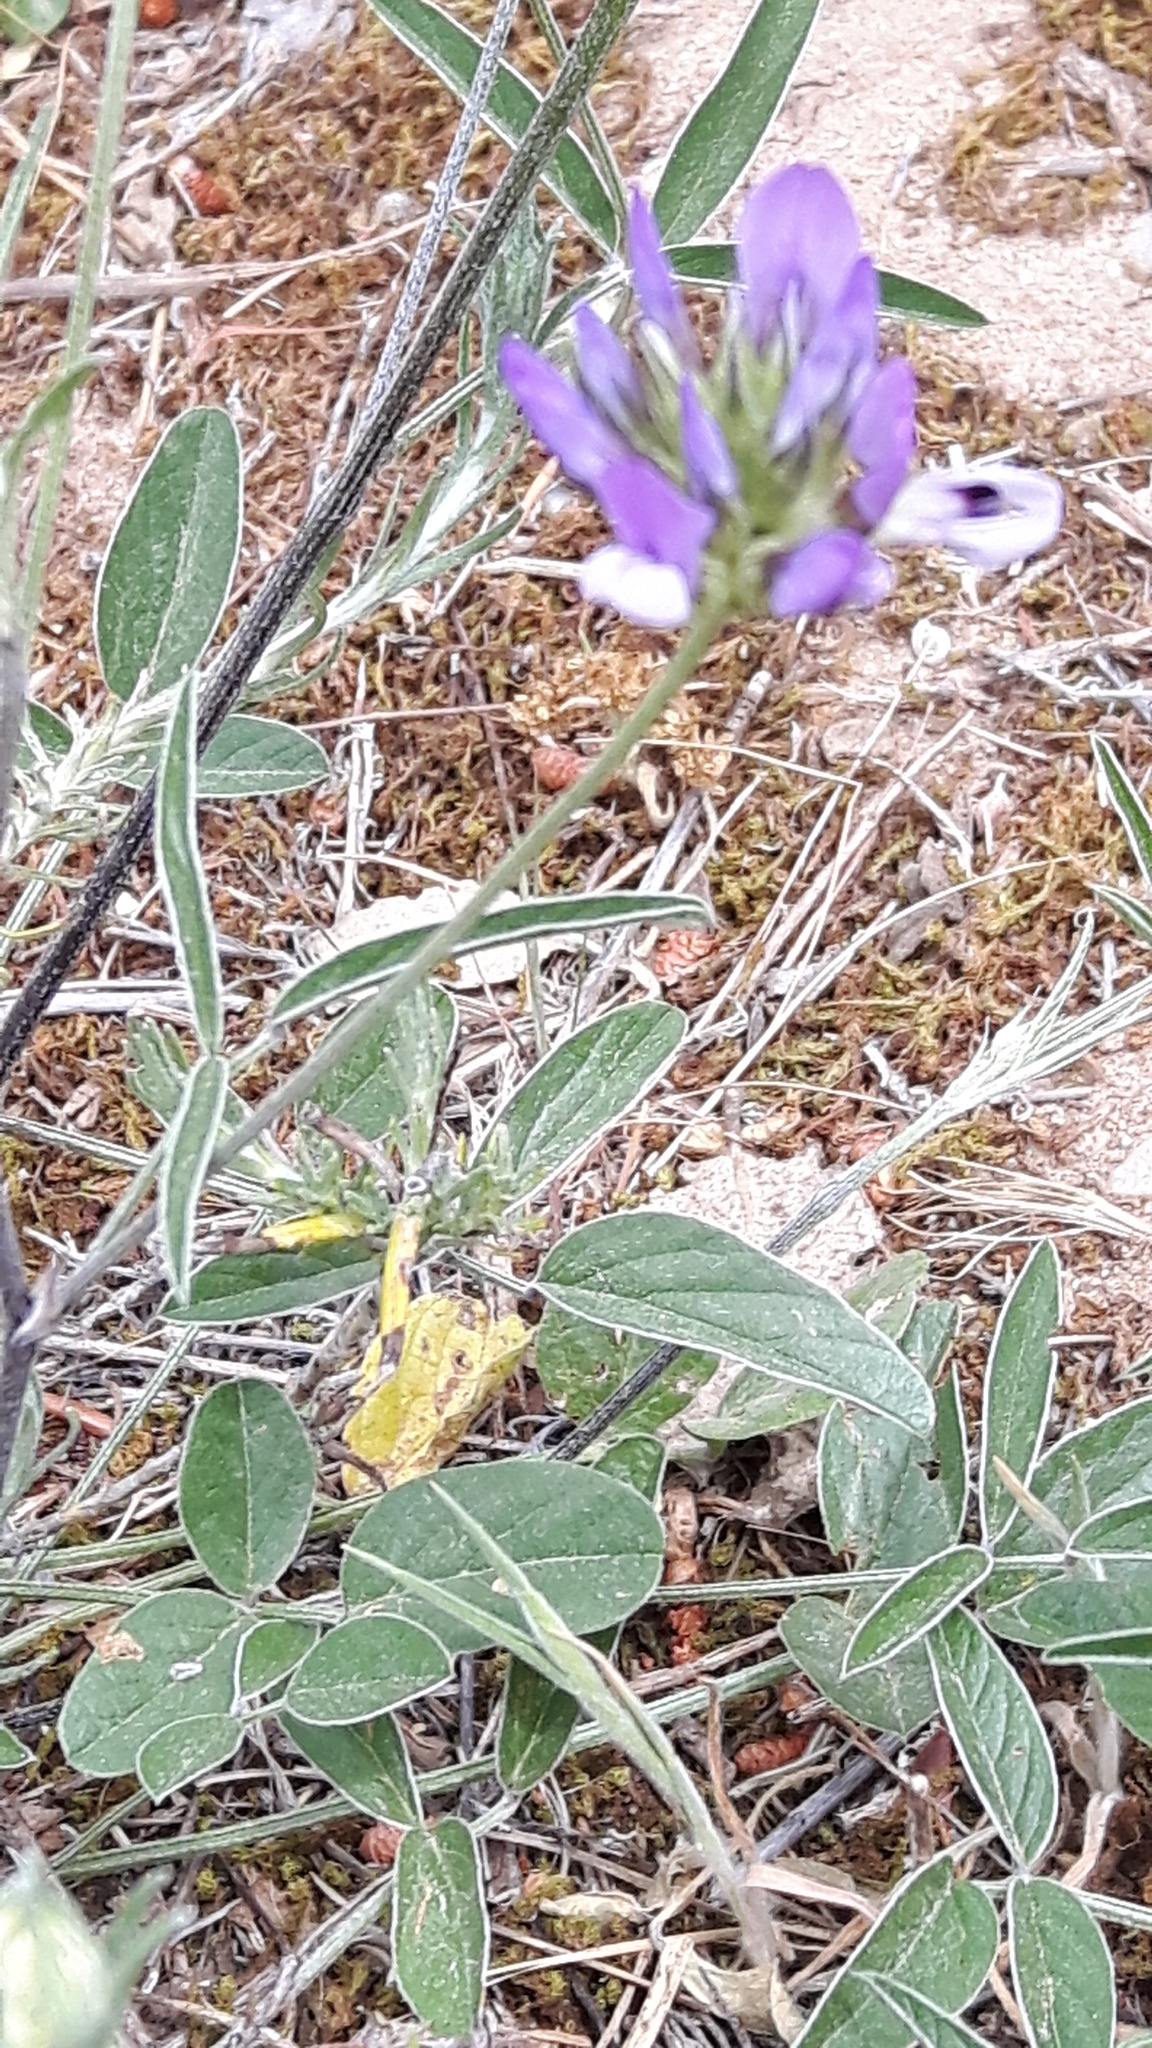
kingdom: Plantae
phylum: Tracheophyta
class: Magnoliopsida
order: Fabales
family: Fabaceae
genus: Bituminaria
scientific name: Bituminaria bituminosa
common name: Arabian pea
